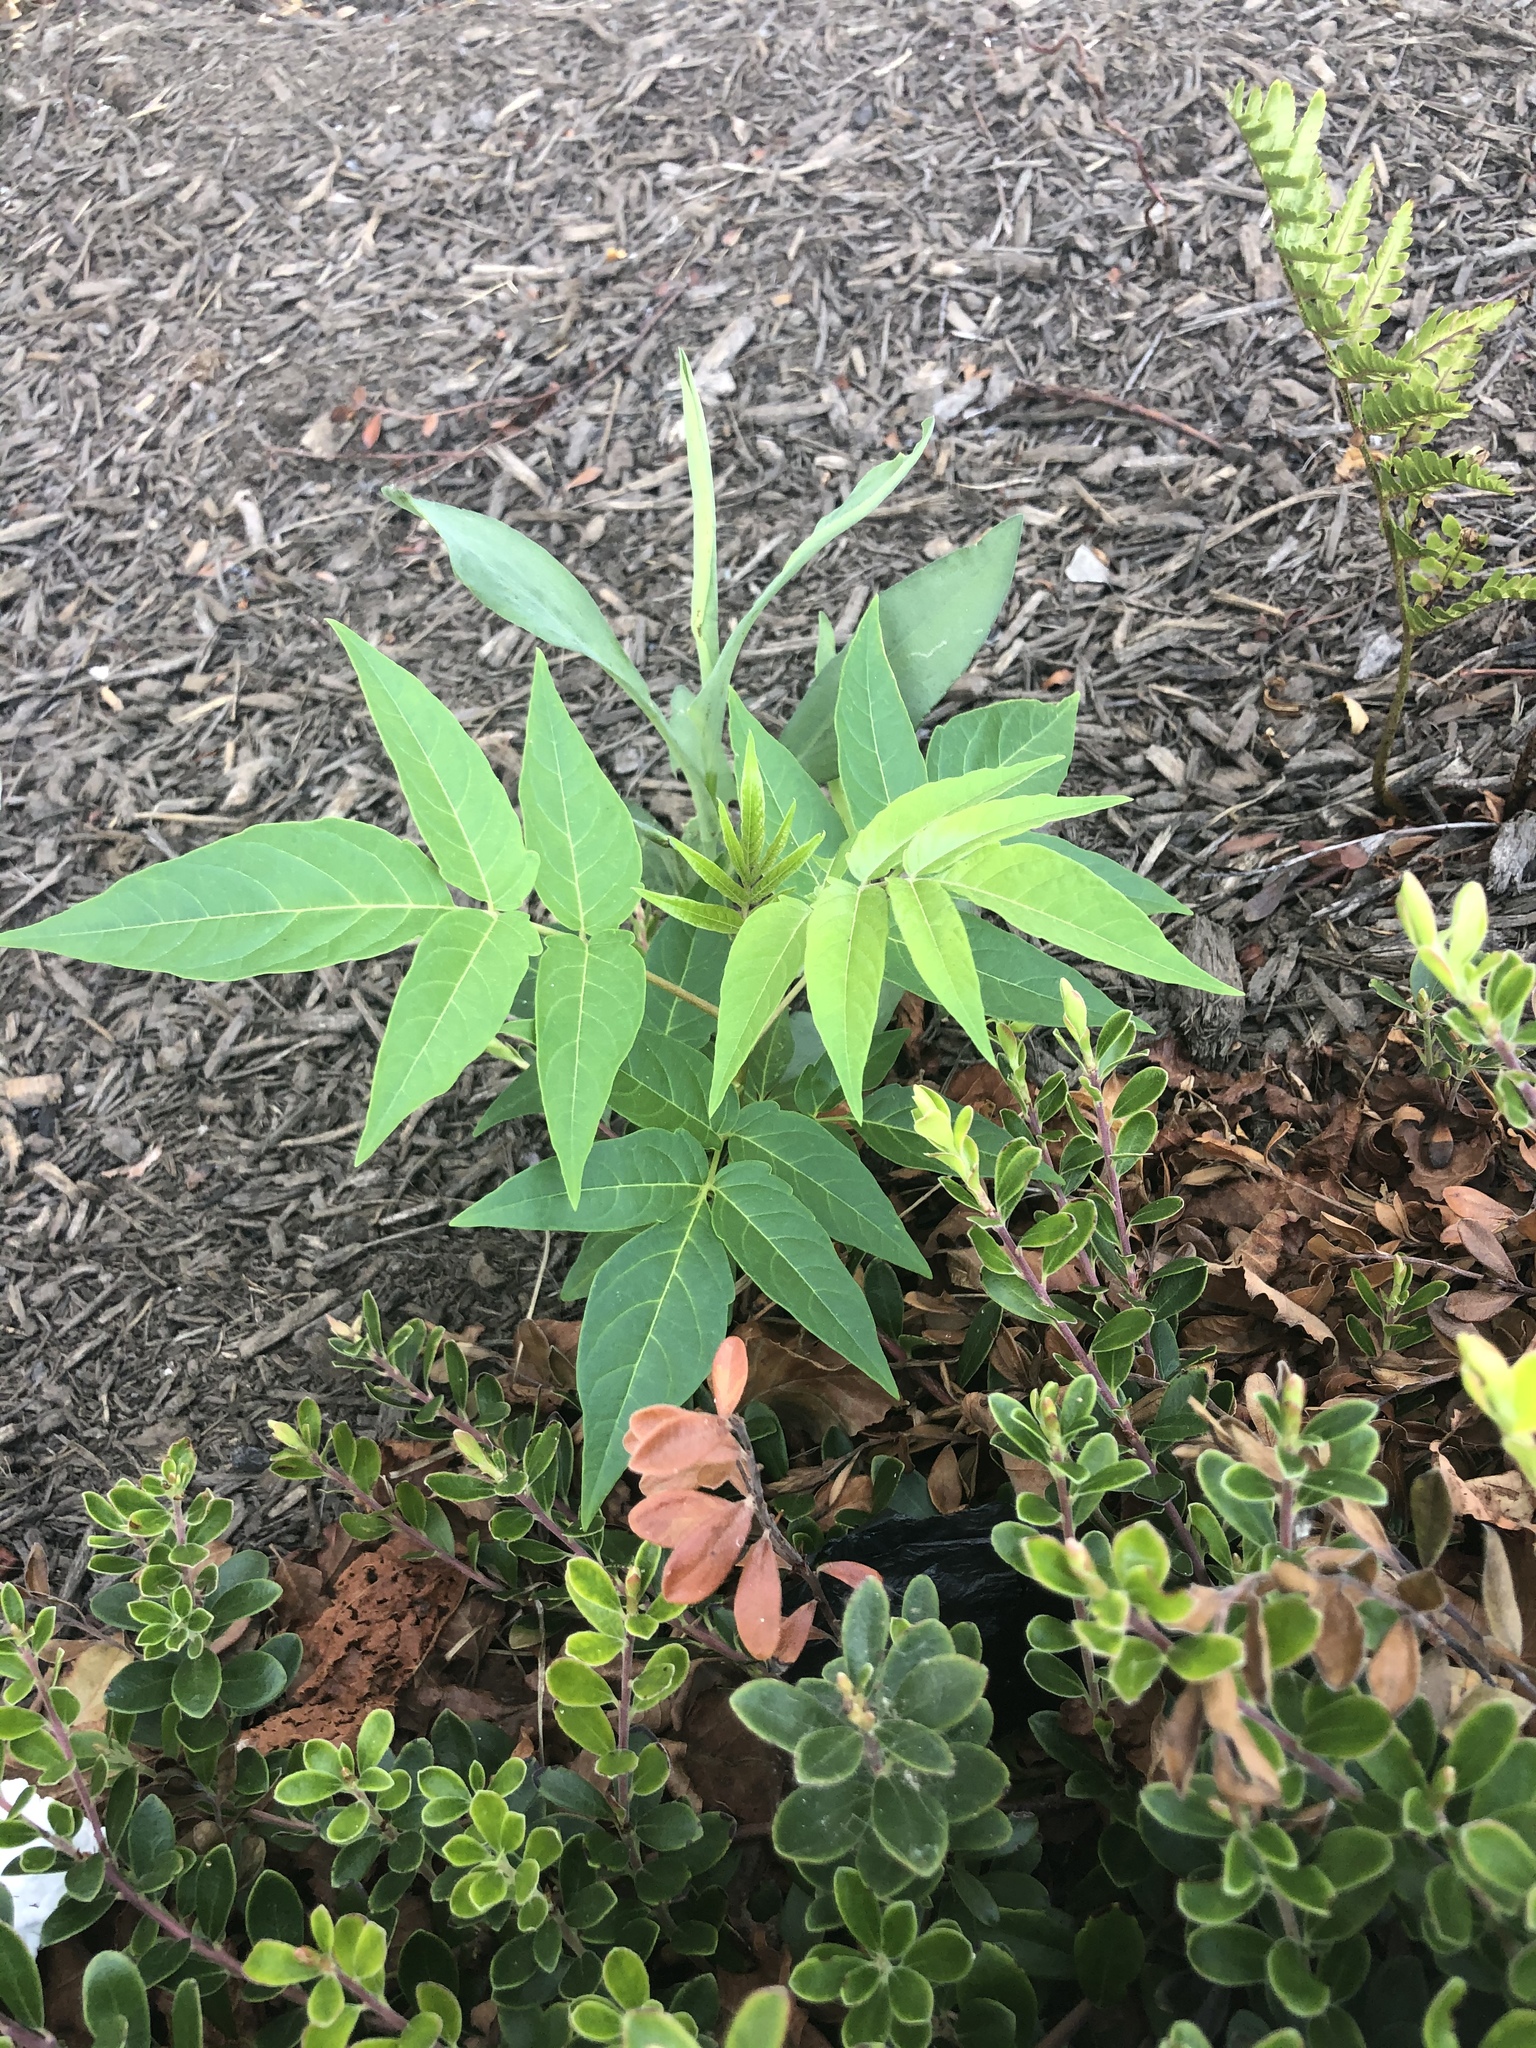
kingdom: Plantae
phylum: Tracheophyta
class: Magnoliopsida
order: Sapindales
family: Simaroubaceae
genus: Ailanthus
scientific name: Ailanthus altissima
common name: Tree-of-heaven
